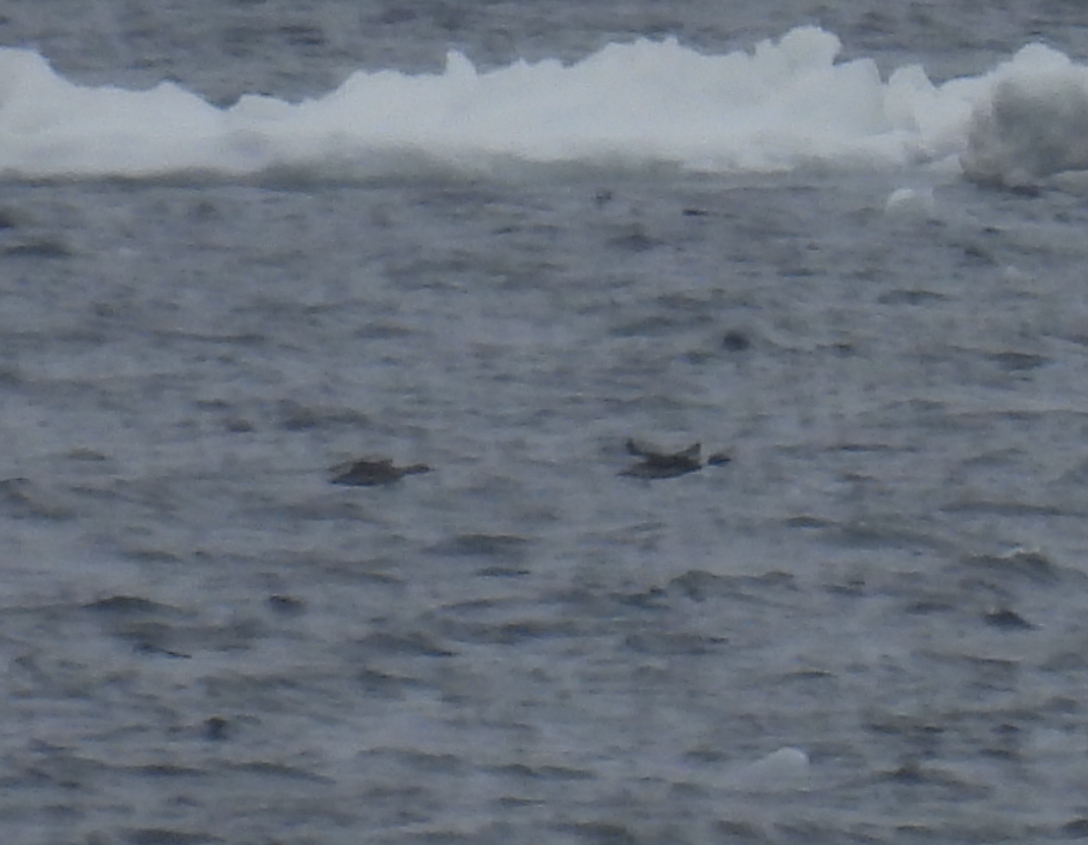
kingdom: Animalia
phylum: Chordata
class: Aves
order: Anseriformes
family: Anatidae
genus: Somateria
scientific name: Somateria mollissima
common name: Common eider
